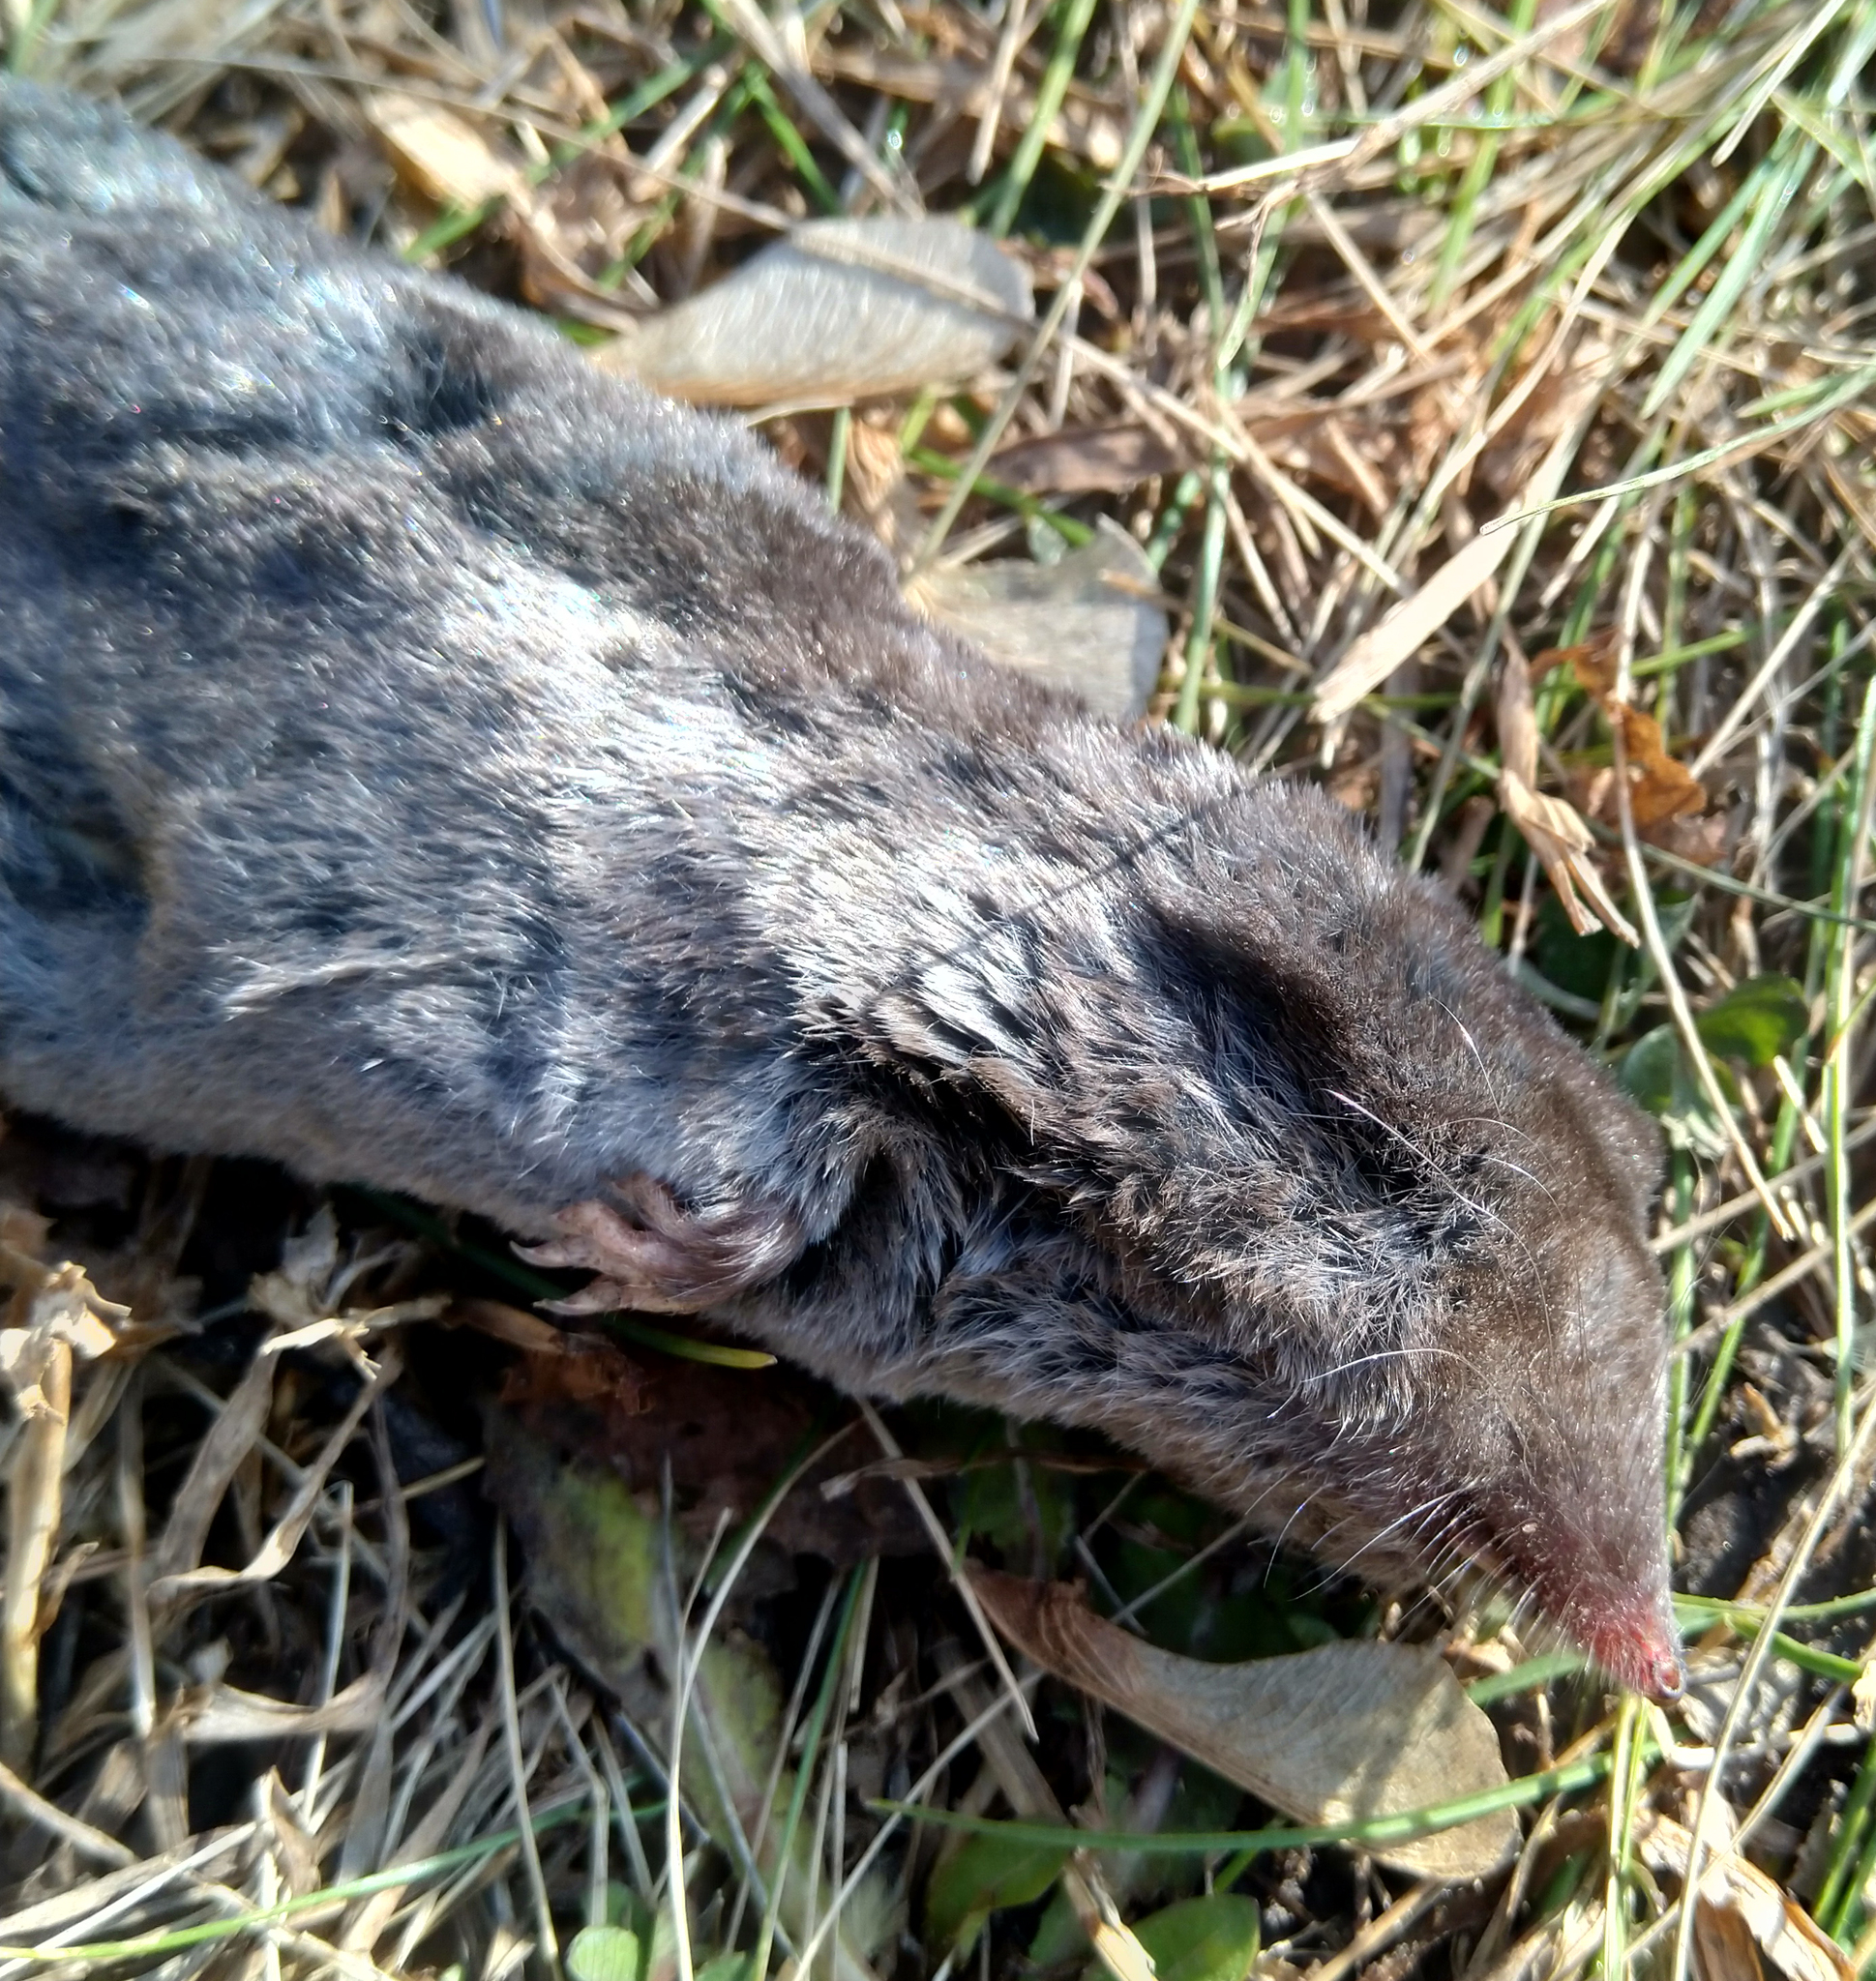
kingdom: Animalia
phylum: Chordata
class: Mammalia
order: Soricomorpha
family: Soricidae
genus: Blarina
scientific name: Blarina brevicauda
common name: Northern short-tailed shrew
